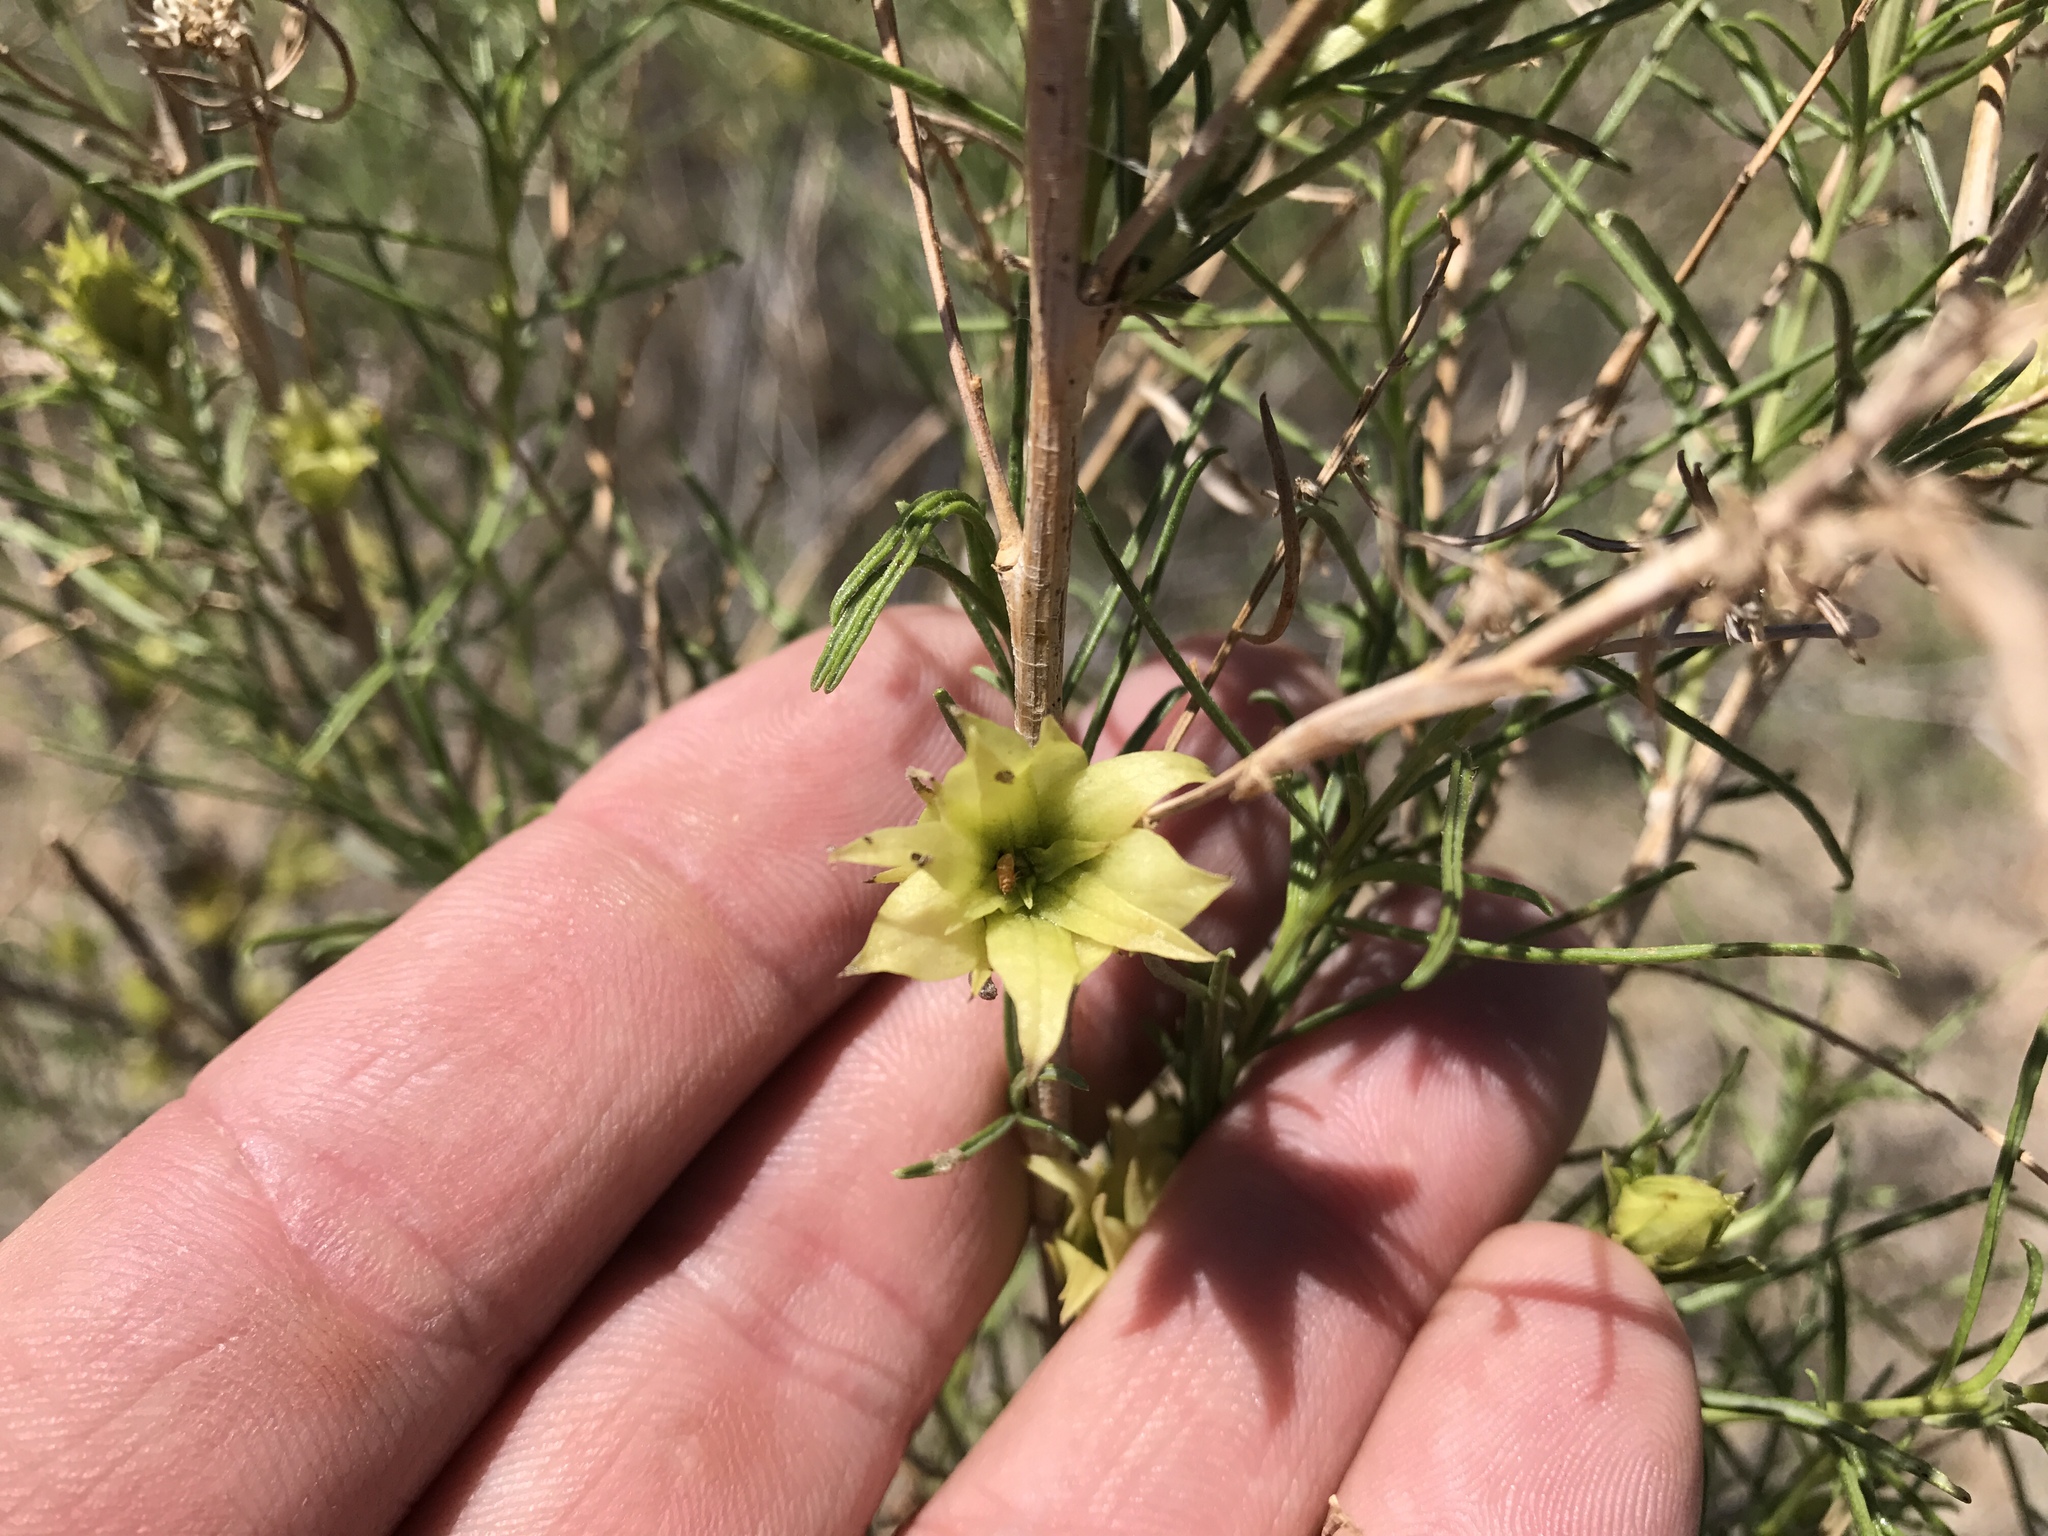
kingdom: Plantae
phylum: Tracheophyta
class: Magnoliopsida
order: Asterales
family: Asteraceae
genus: Ambrosia
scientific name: Ambrosia monogyra
